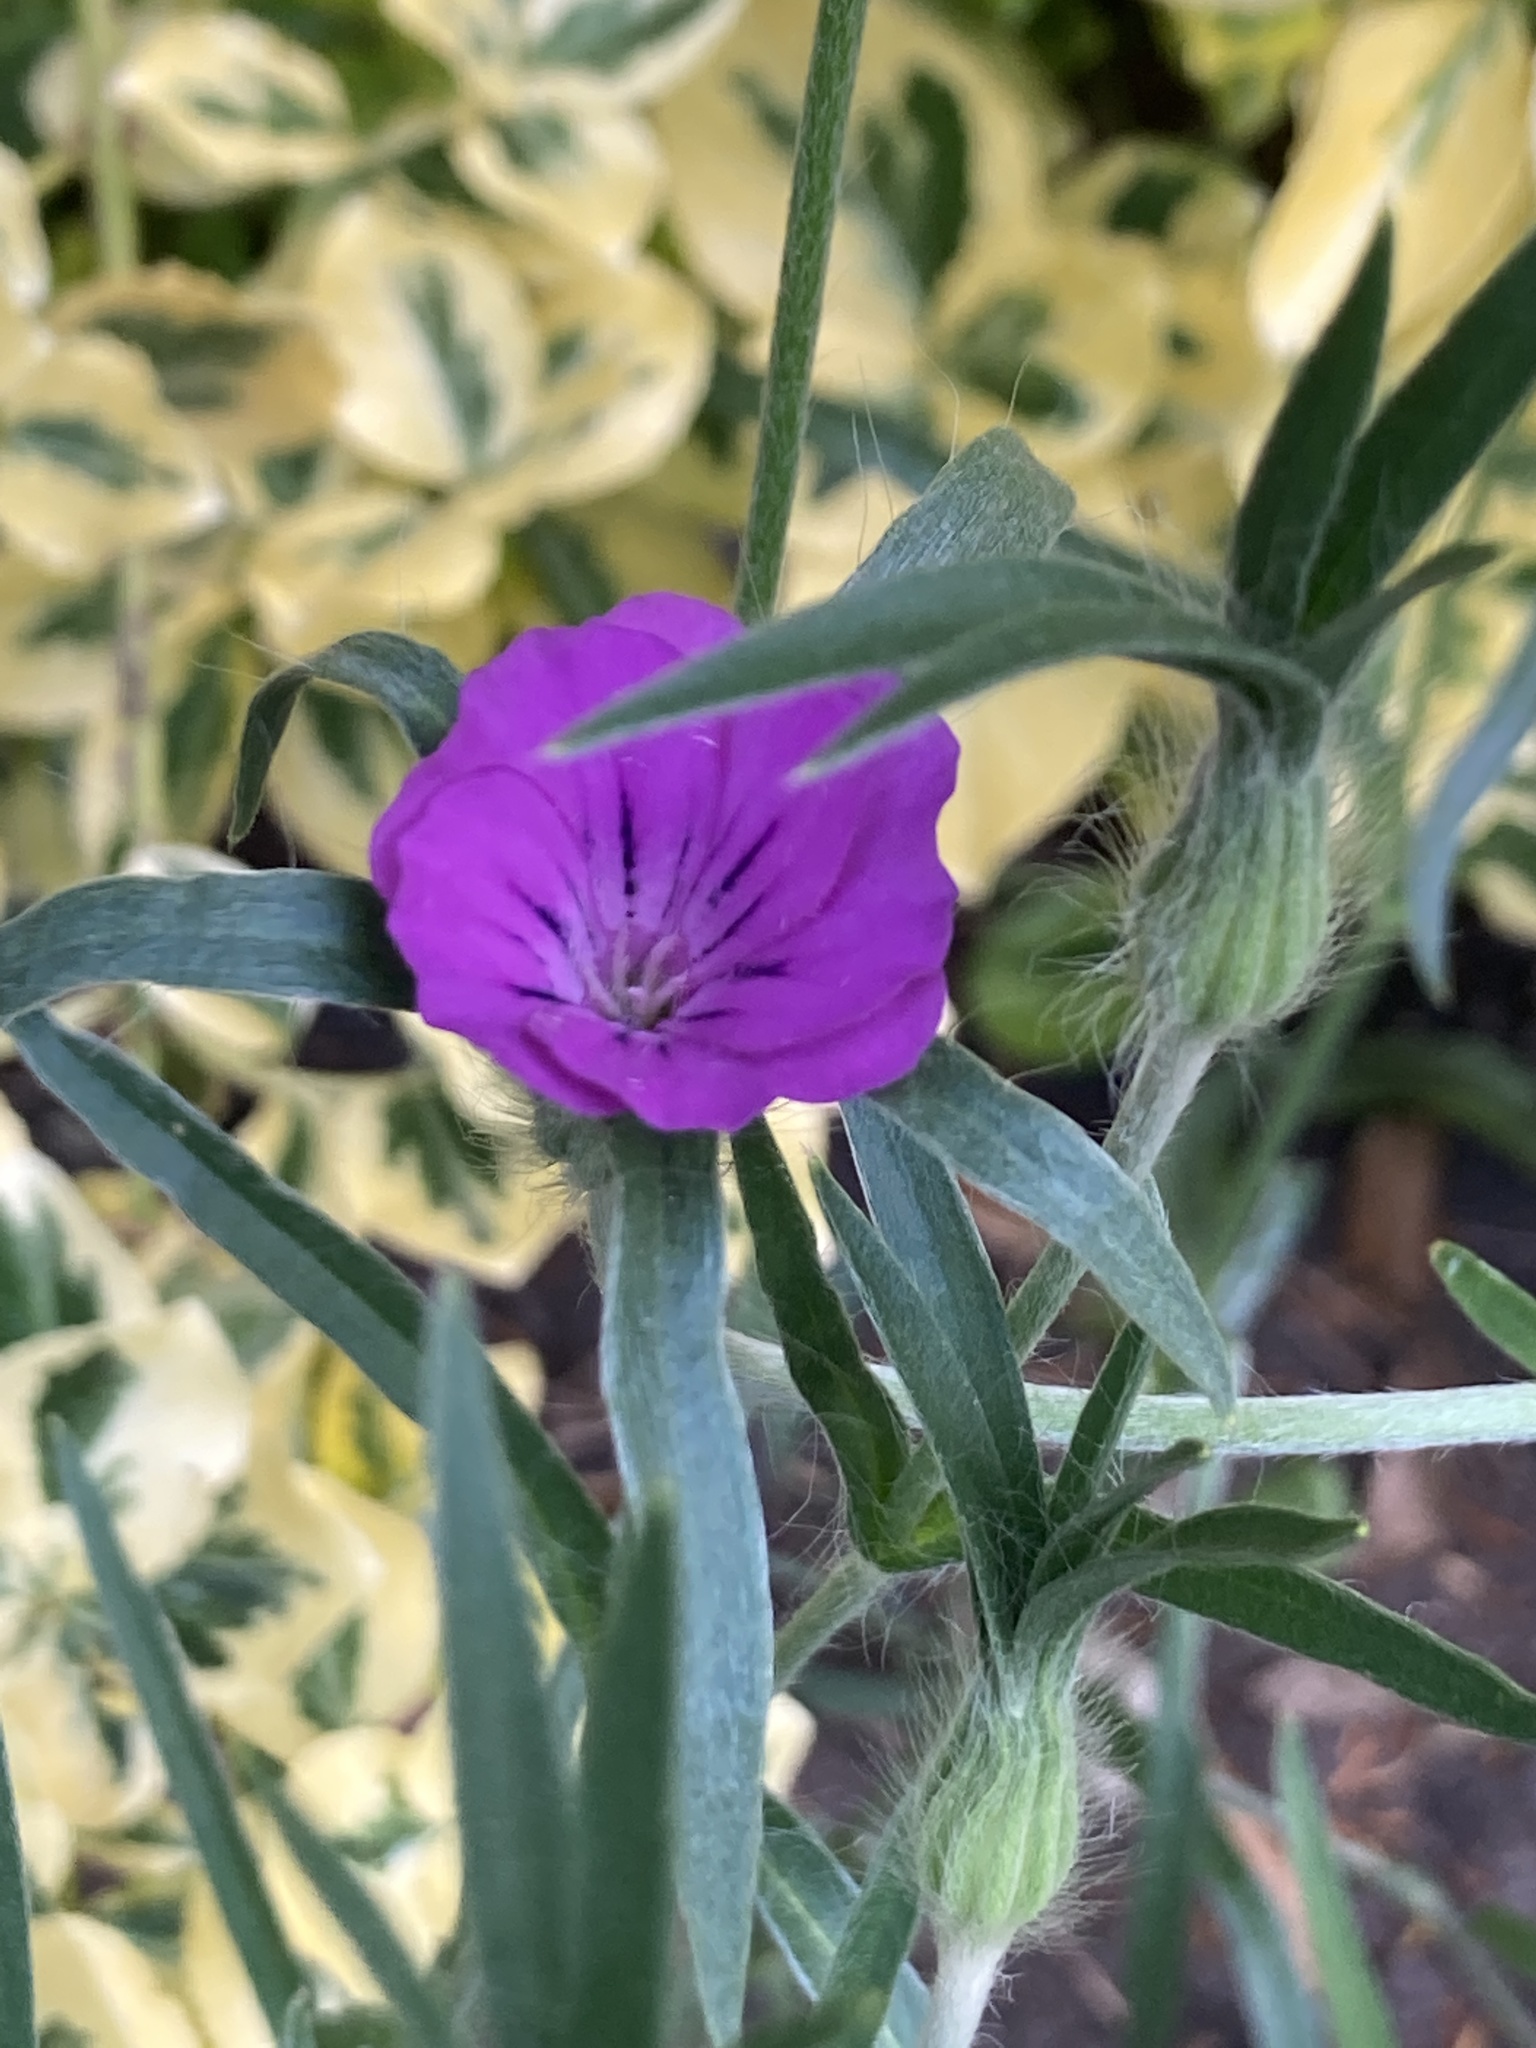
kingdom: Plantae
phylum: Tracheophyta
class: Magnoliopsida
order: Caryophyllales
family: Caryophyllaceae
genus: Agrostemma
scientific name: Agrostemma githago
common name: Common corncockle
